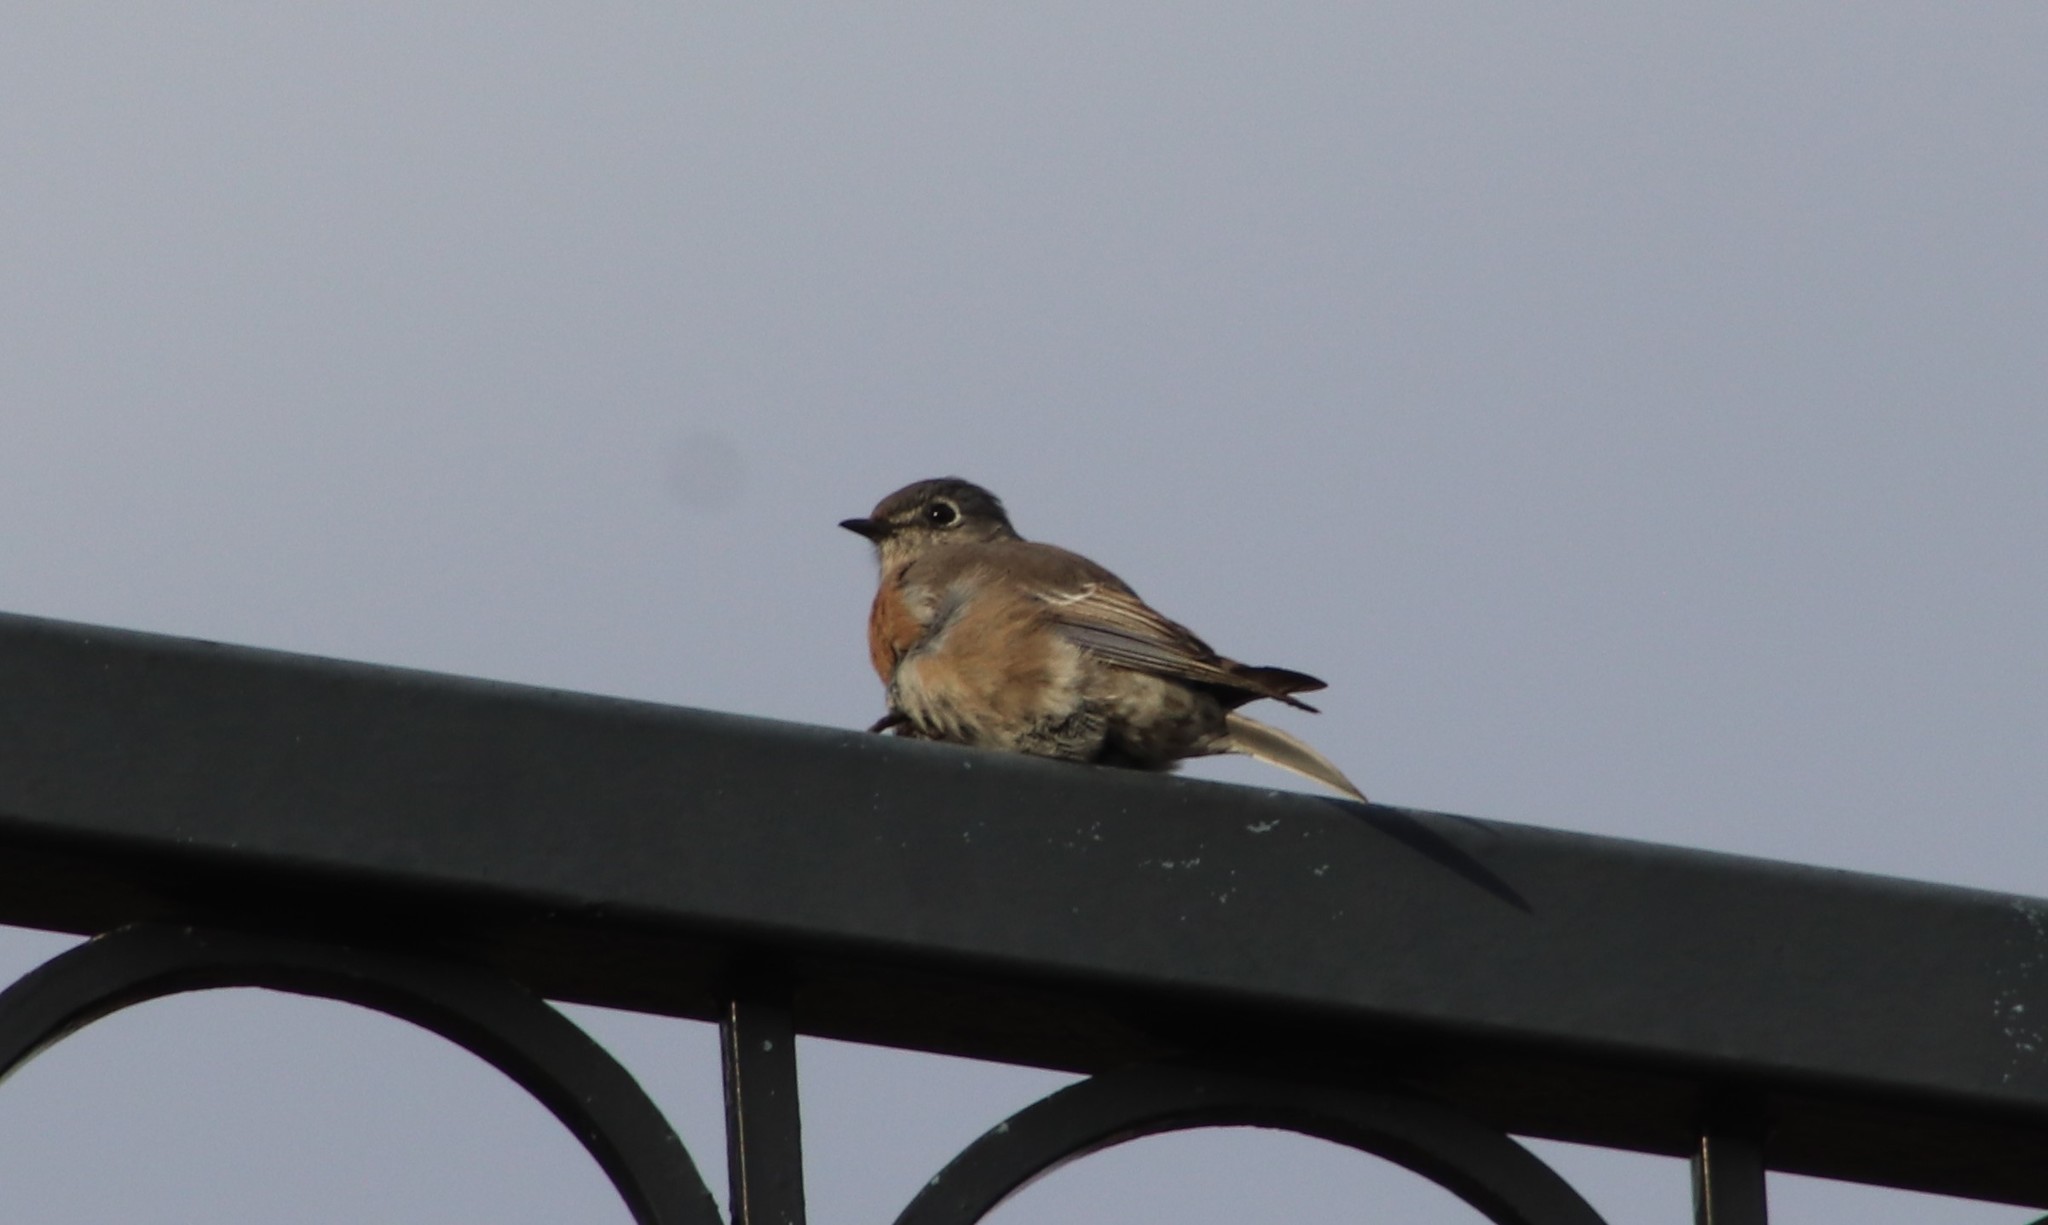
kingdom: Animalia
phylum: Chordata
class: Aves
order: Passeriformes
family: Turdidae
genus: Sialia
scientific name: Sialia mexicana
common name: Western bluebird
